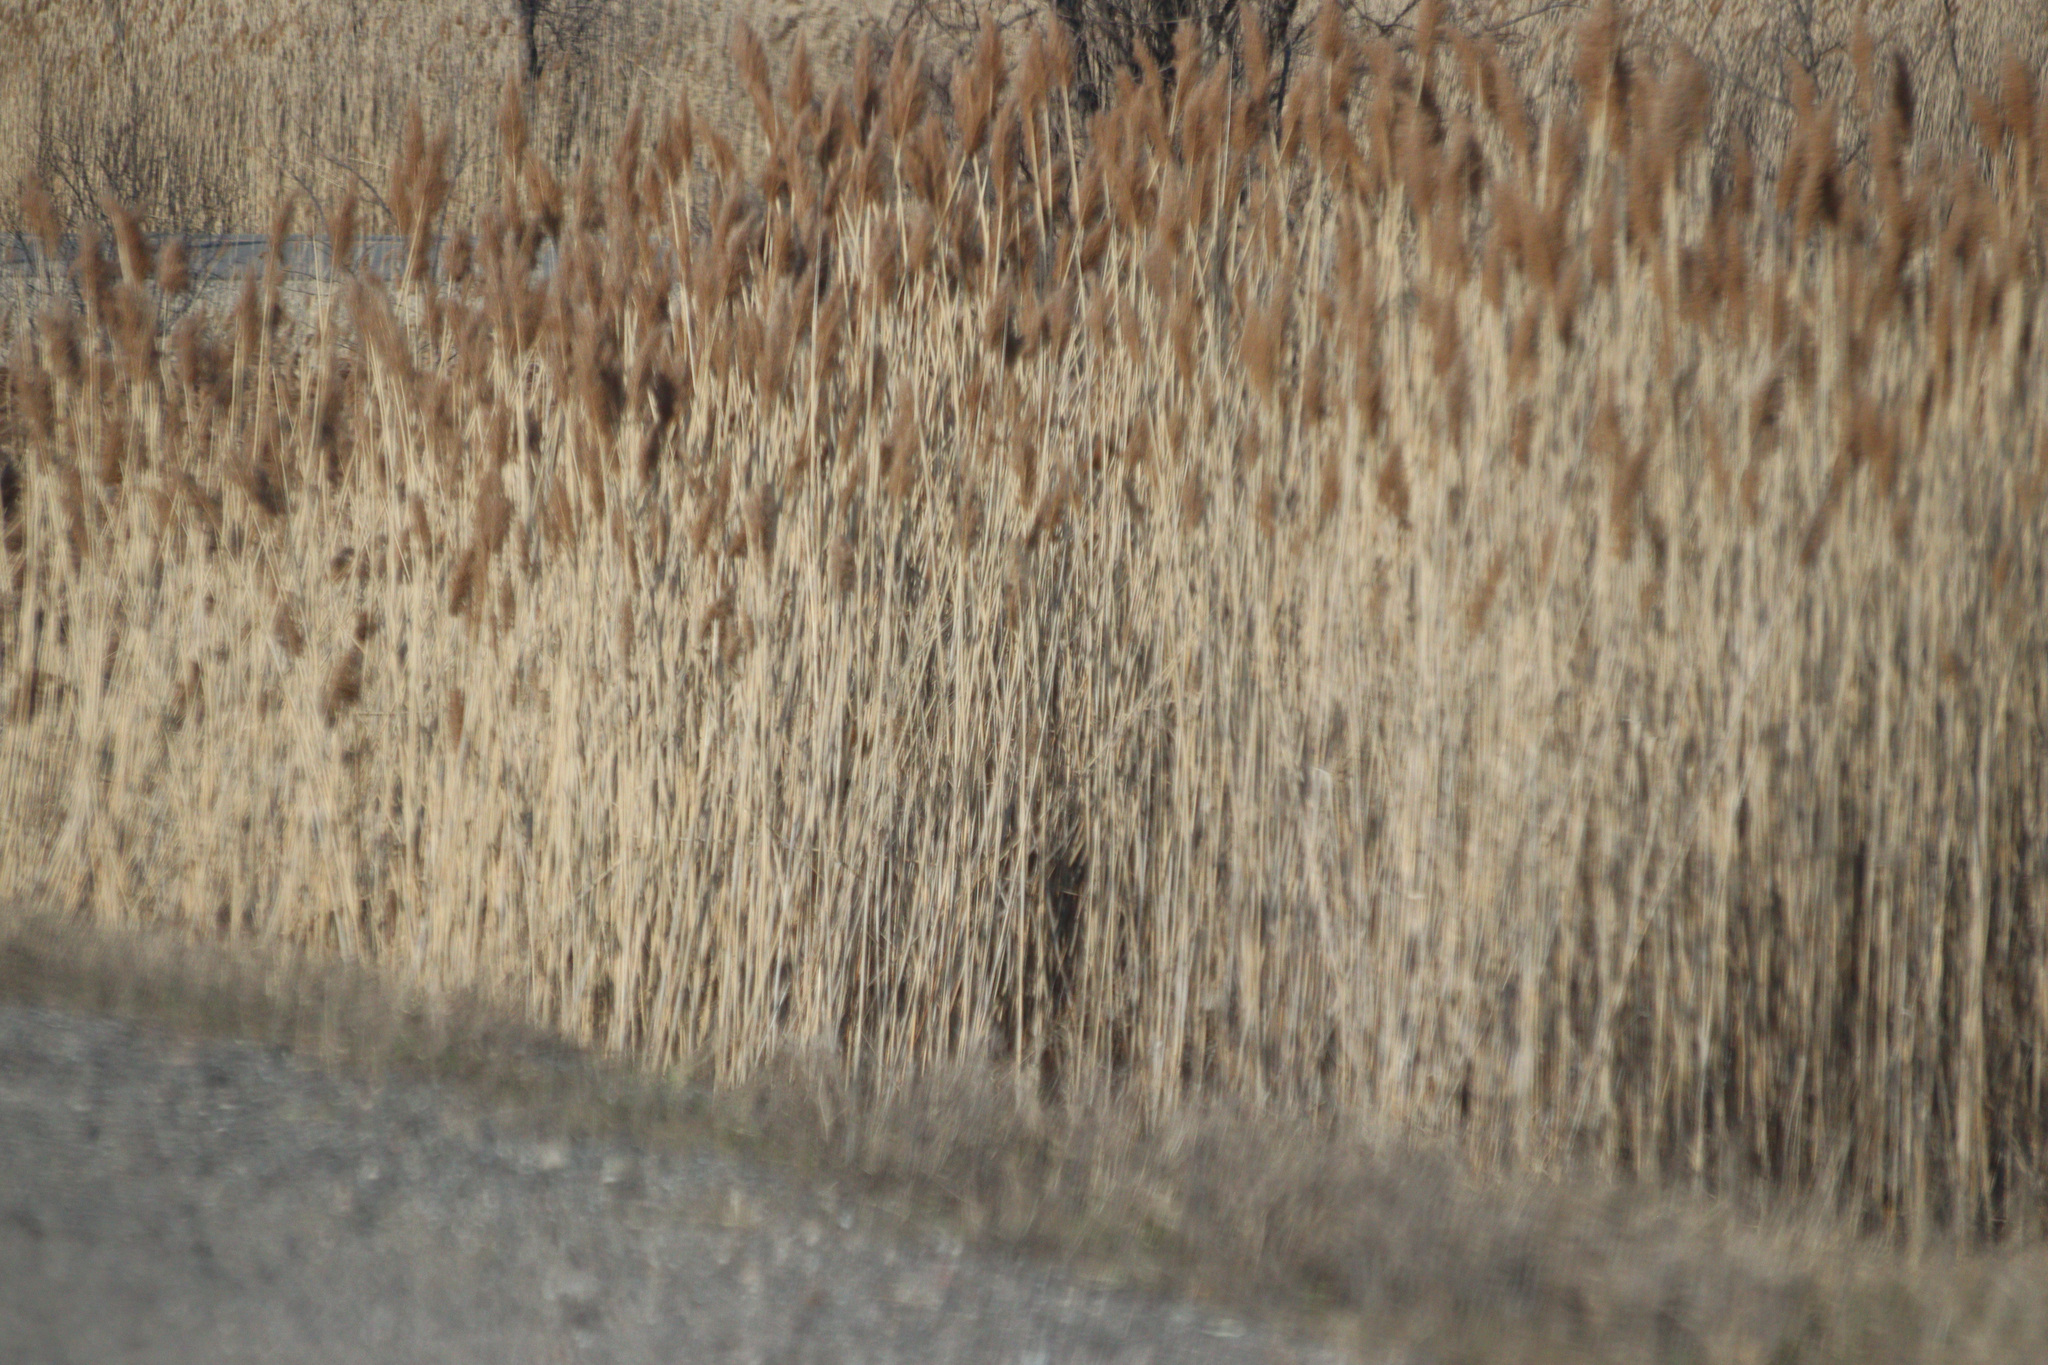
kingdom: Plantae
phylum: Tracheophyta
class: Liliopsida
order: Poales
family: Poaceae
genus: Phragmites
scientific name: Phragmites australis
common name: Common reed
